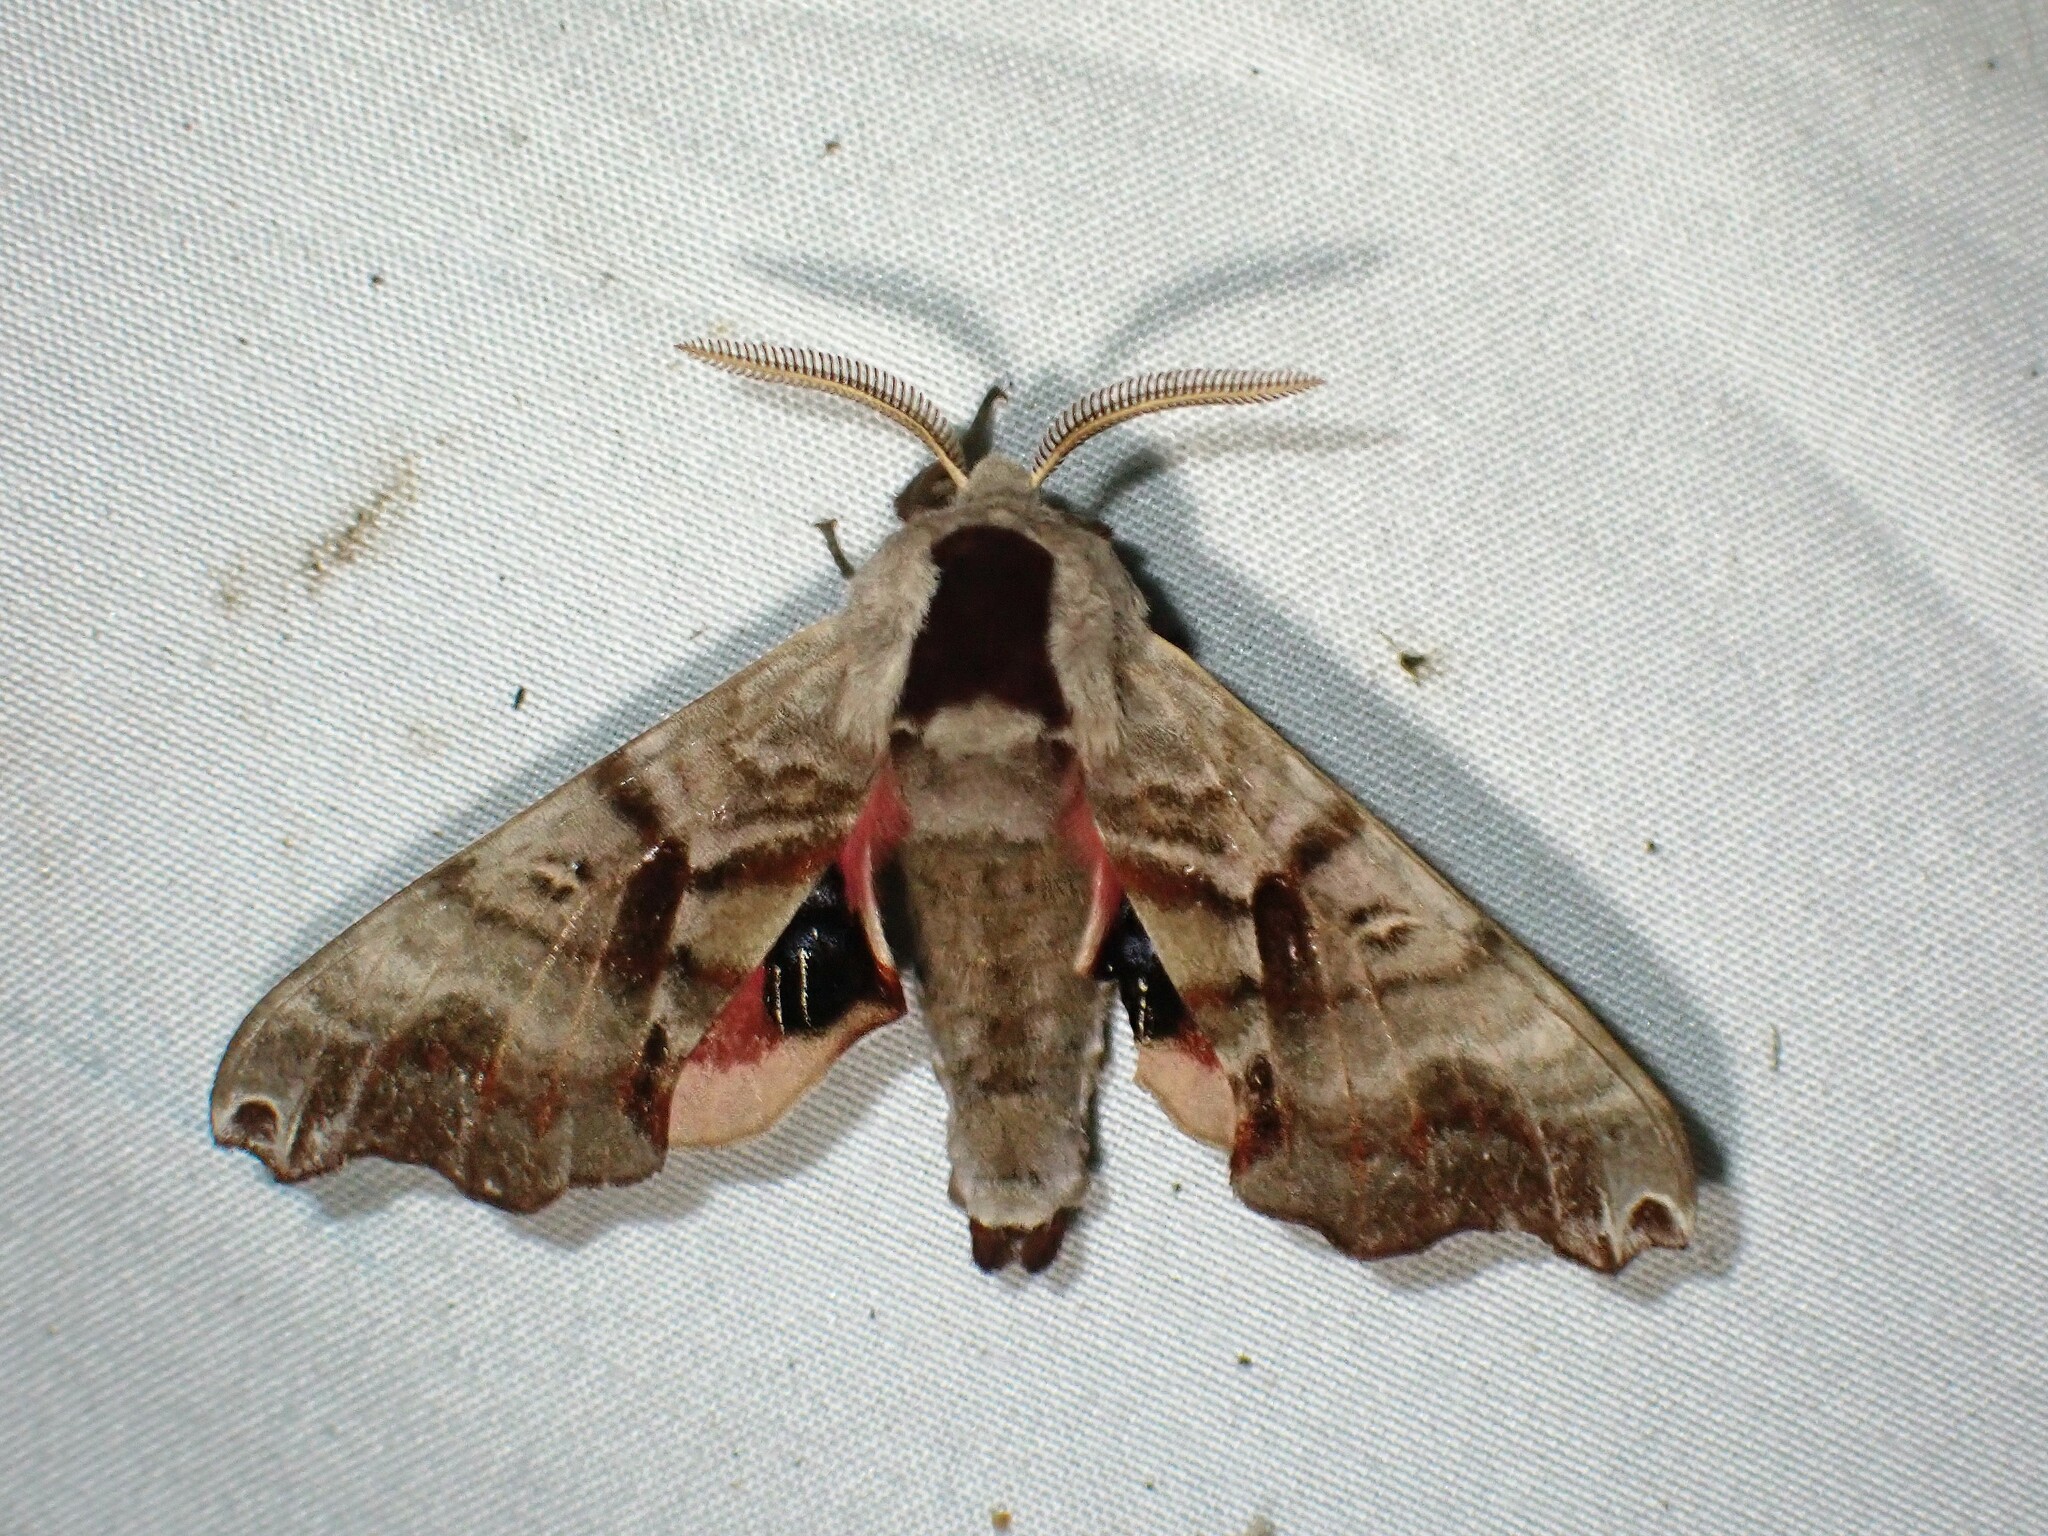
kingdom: Animalia
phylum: Arthropoda
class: Insecta
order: Lepidoptera
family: Sphingidae
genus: Smerinthus
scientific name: Smerinthus jamaicensis
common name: Twin spotted sphinx
